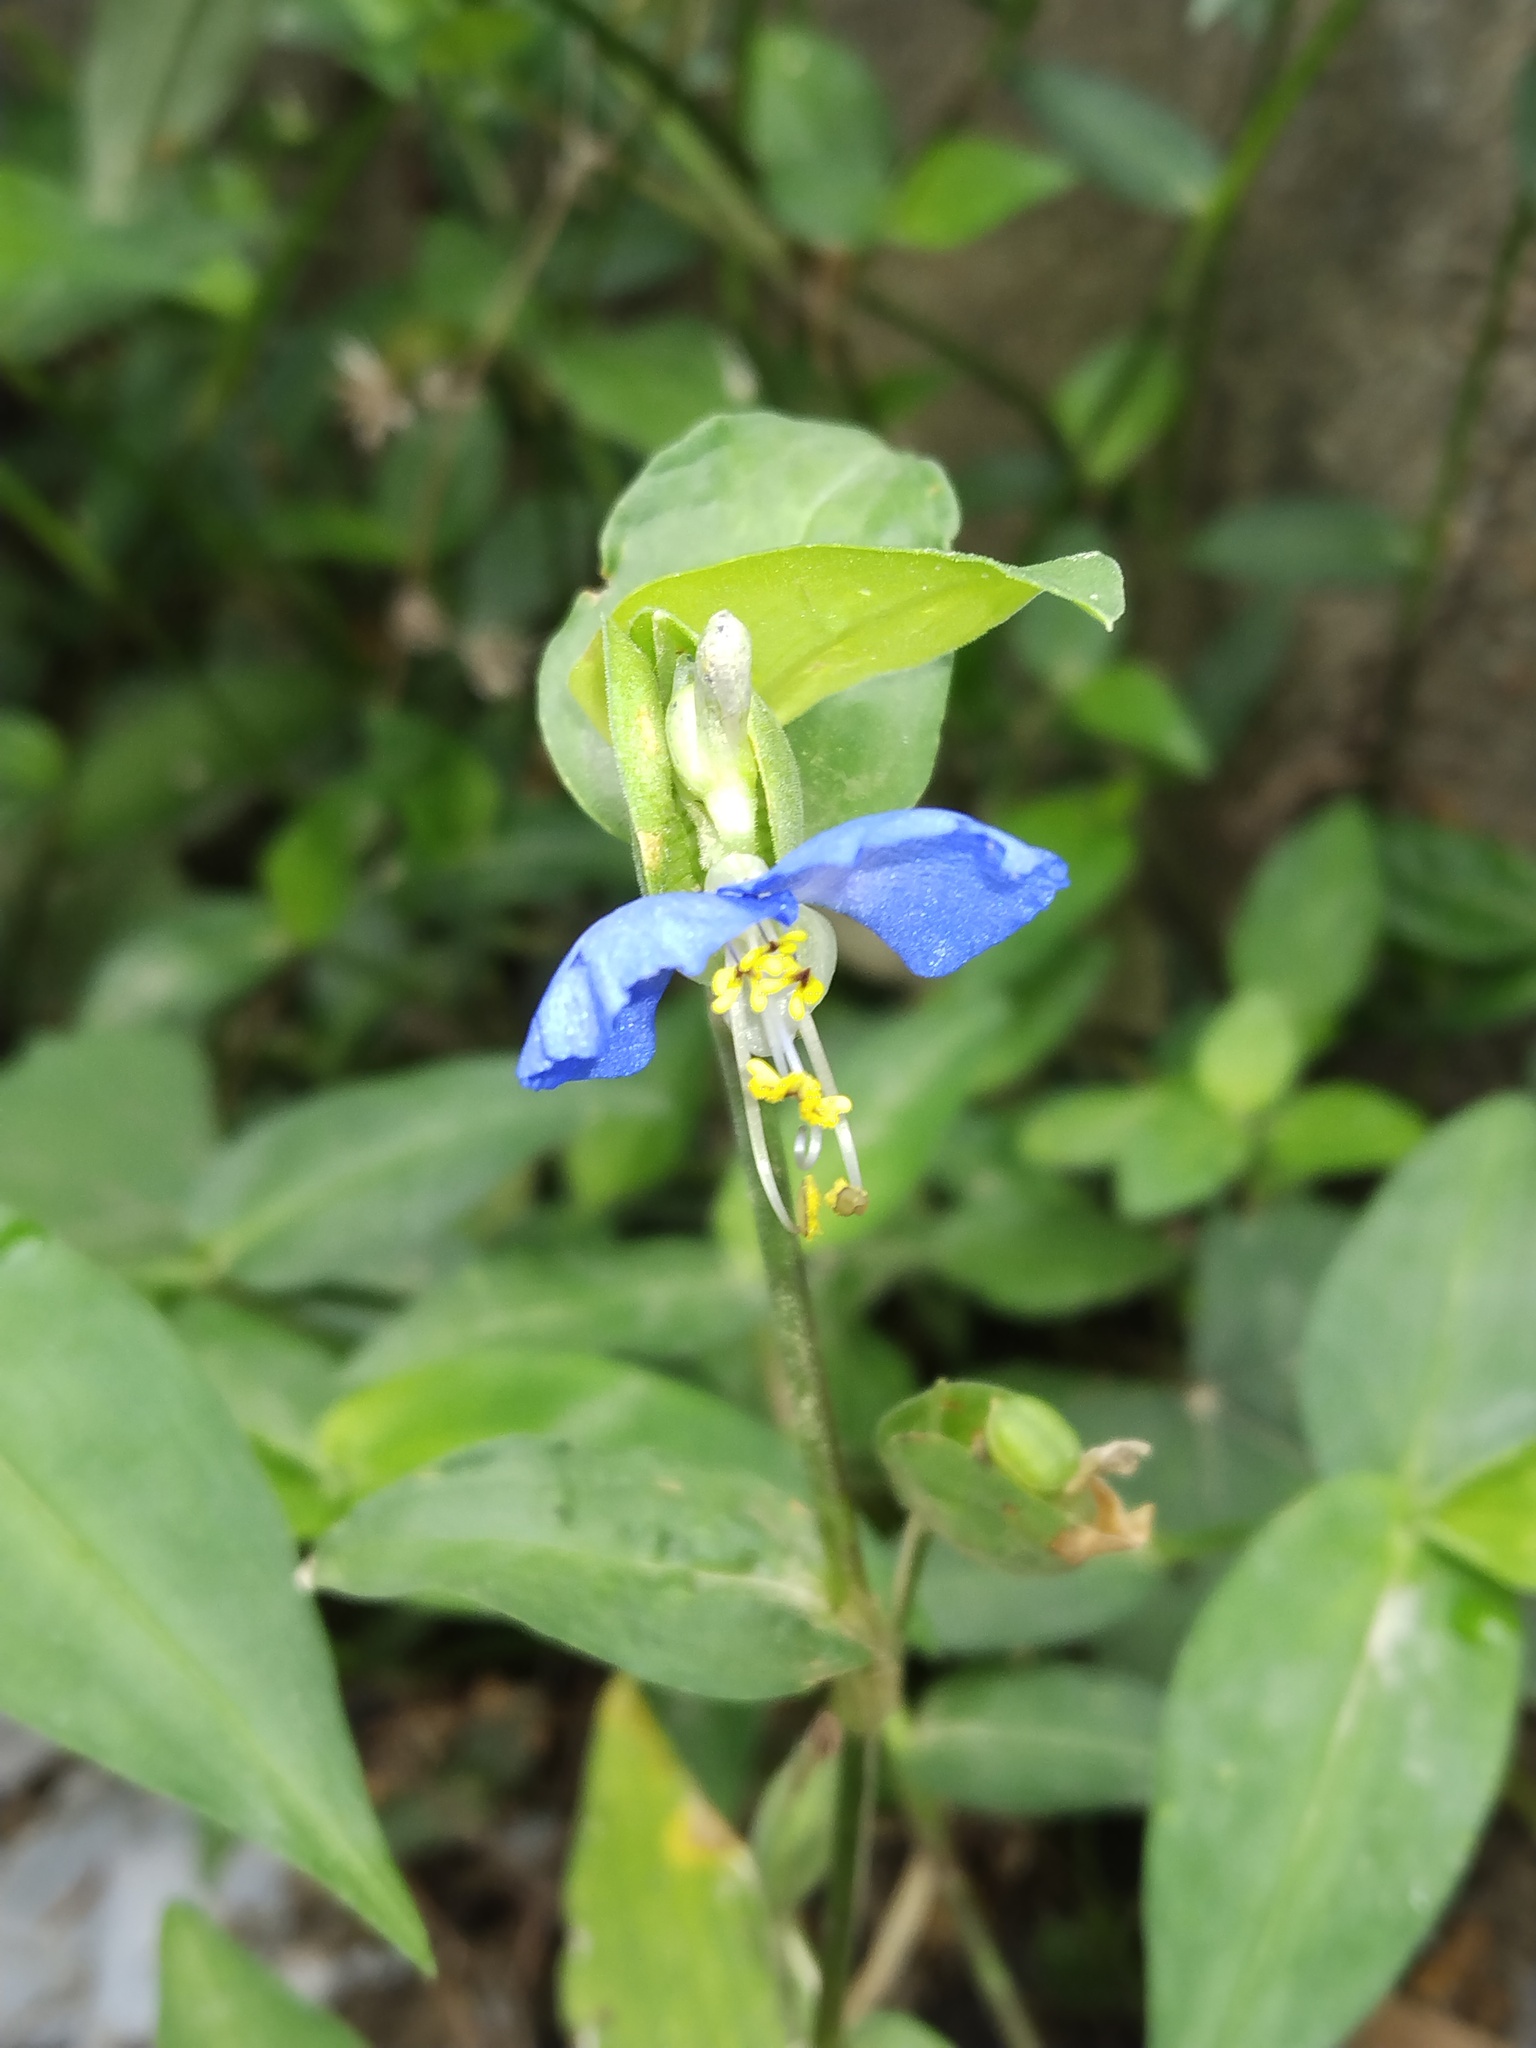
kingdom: Plantae
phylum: Tracheophyta
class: Liliopsida
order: Commelinales
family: Commelinaceae
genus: Commelina
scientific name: Commelina communis
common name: Asiatic dayflower
